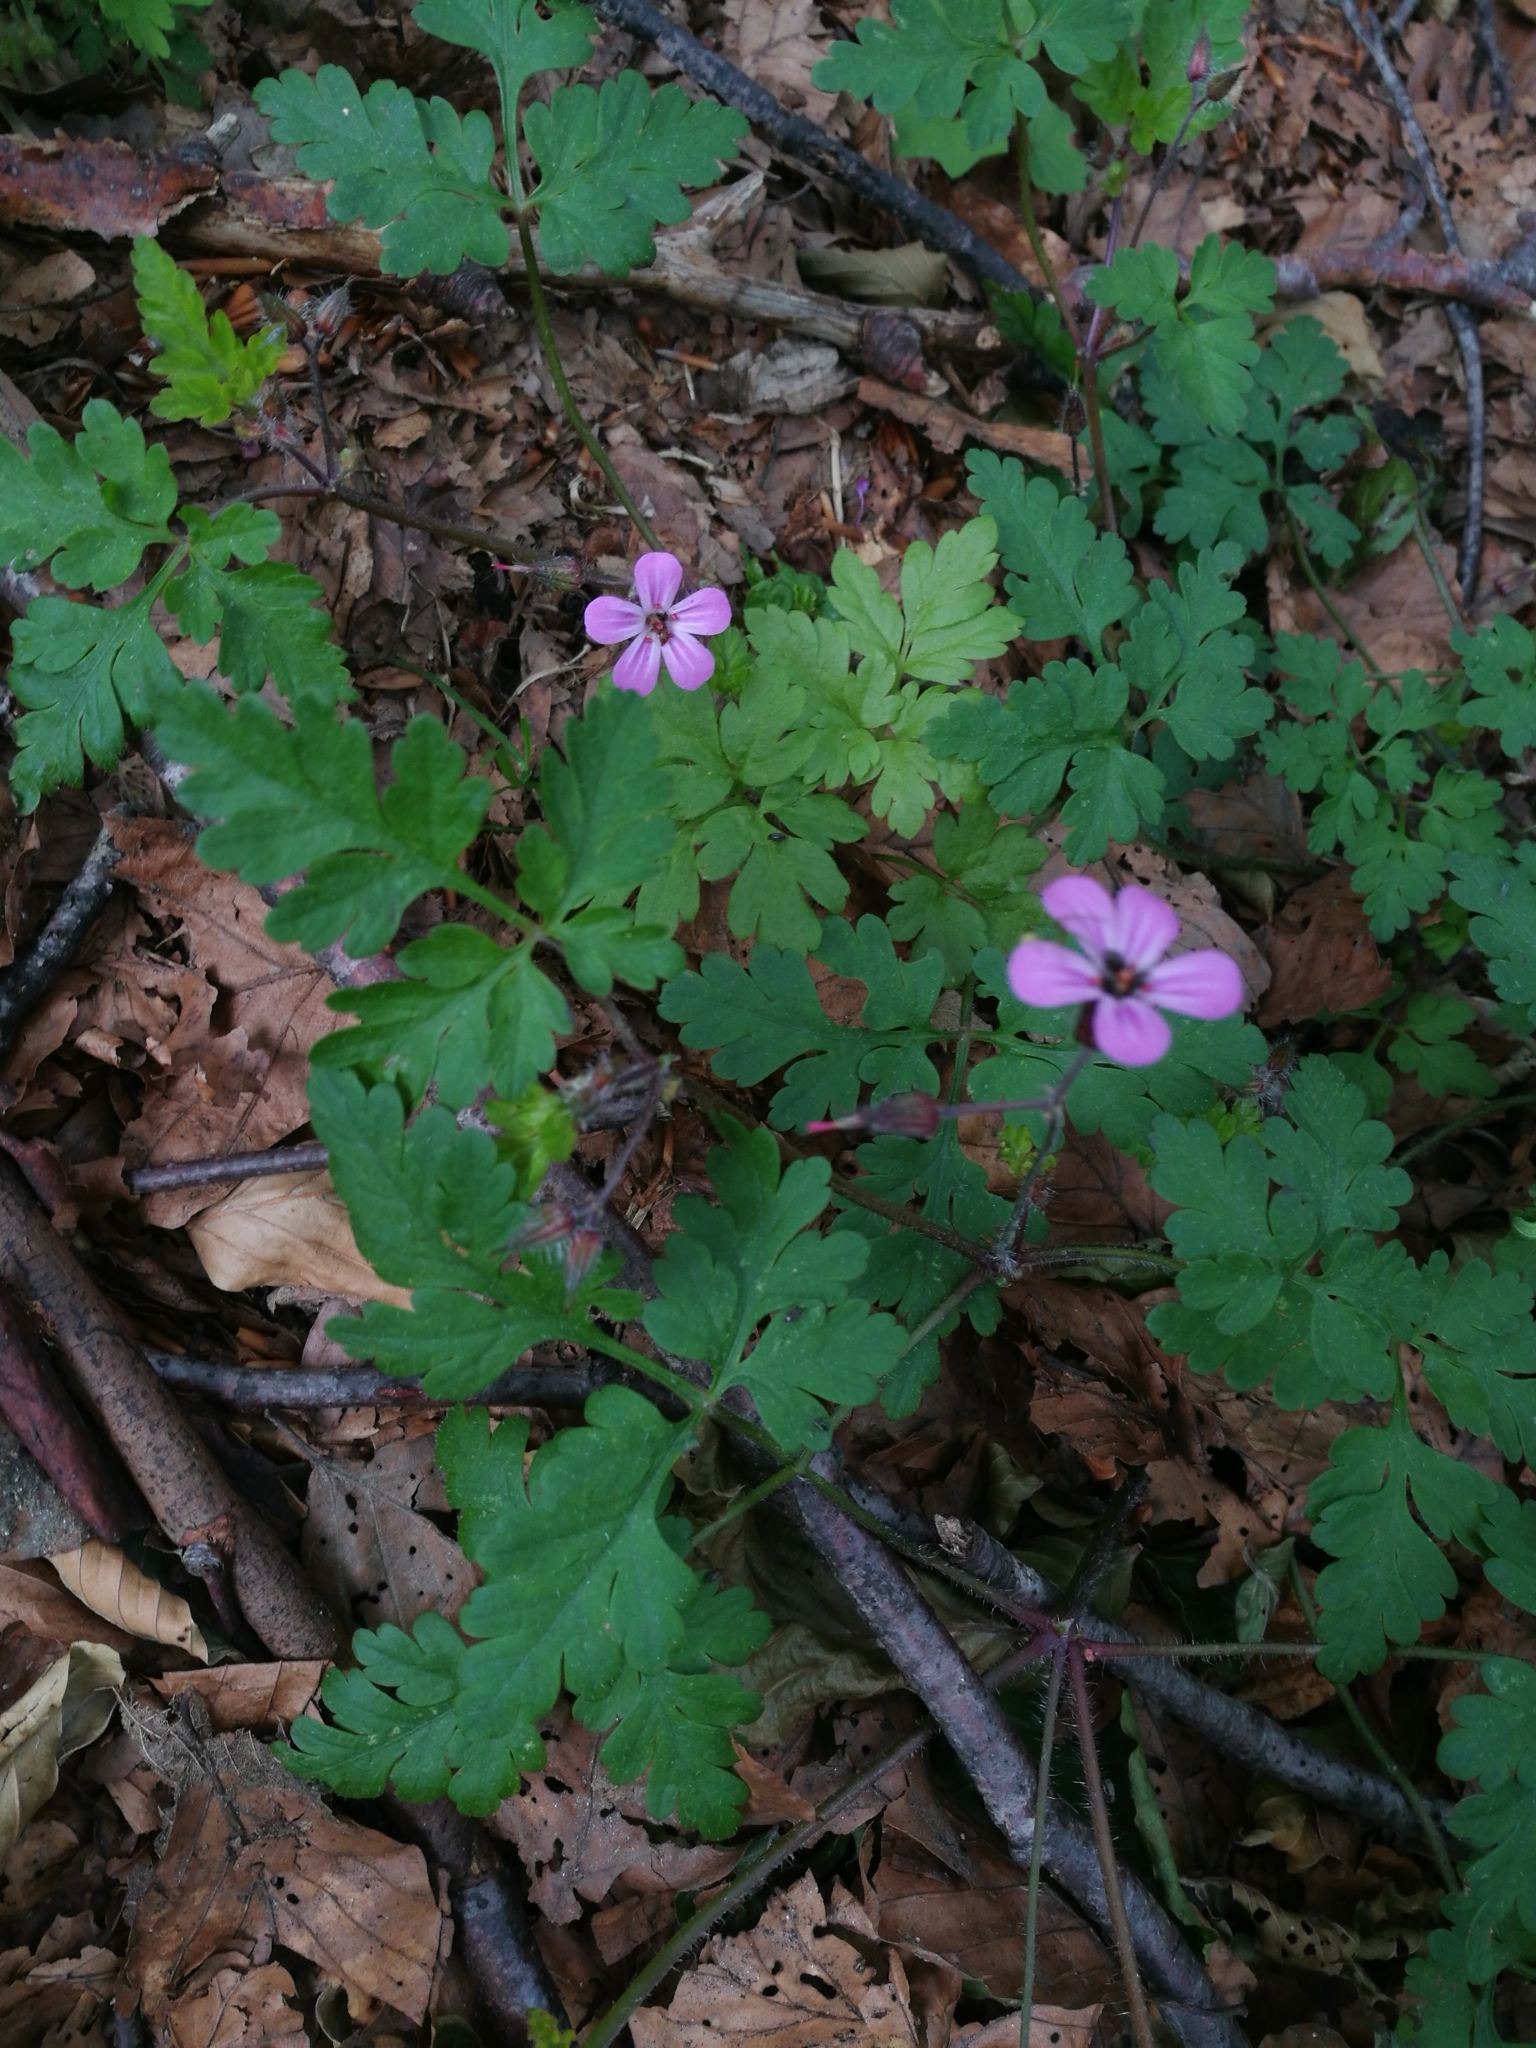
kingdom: Plantae
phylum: Tracheophyta
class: Magnoliopsida
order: Geraniales
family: Geraniaceae
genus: Geranium
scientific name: Geranium robertianum
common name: Herb-robert
